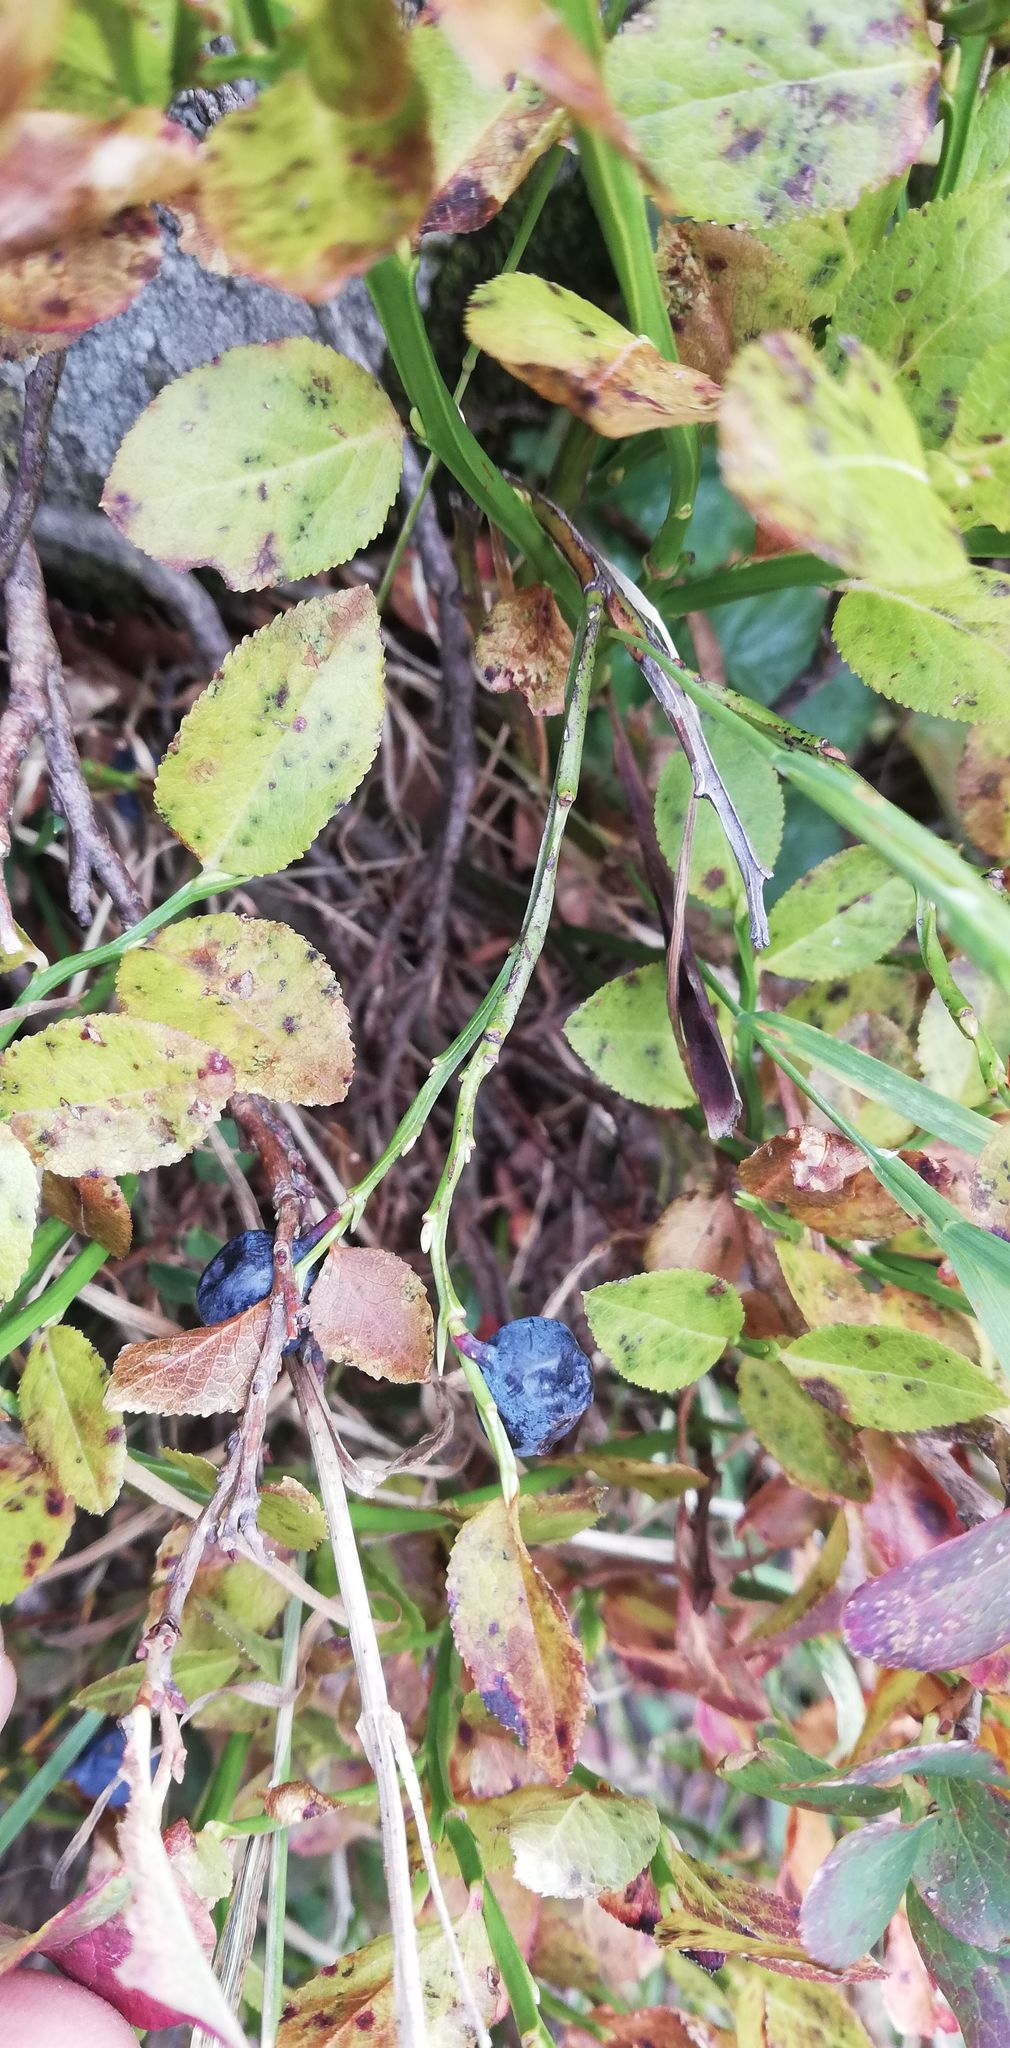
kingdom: Plantae
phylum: Tracheophyta
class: Magnoliopsida
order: Ericales
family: Ericaceae
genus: Vaccinium
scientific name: Vaccinium myrtillus
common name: Bilberry
